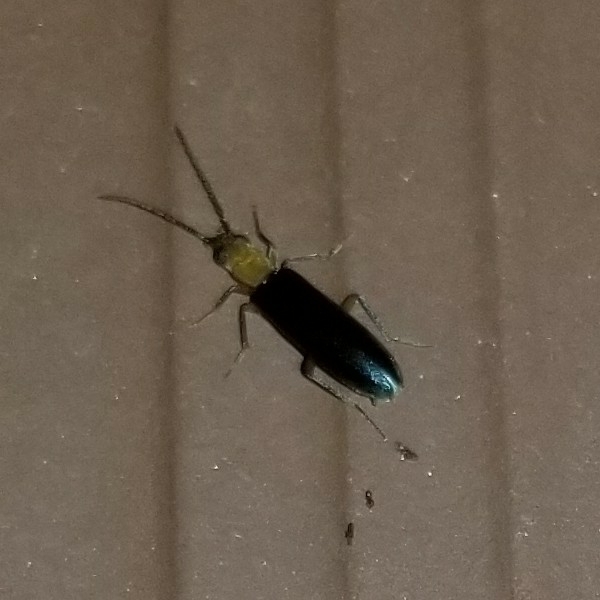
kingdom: Animalia
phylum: Arthropoda
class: Insecta
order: Coleoptera
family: Oedemeridae
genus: Xanthochroina
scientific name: Xanthochroina bicolor
